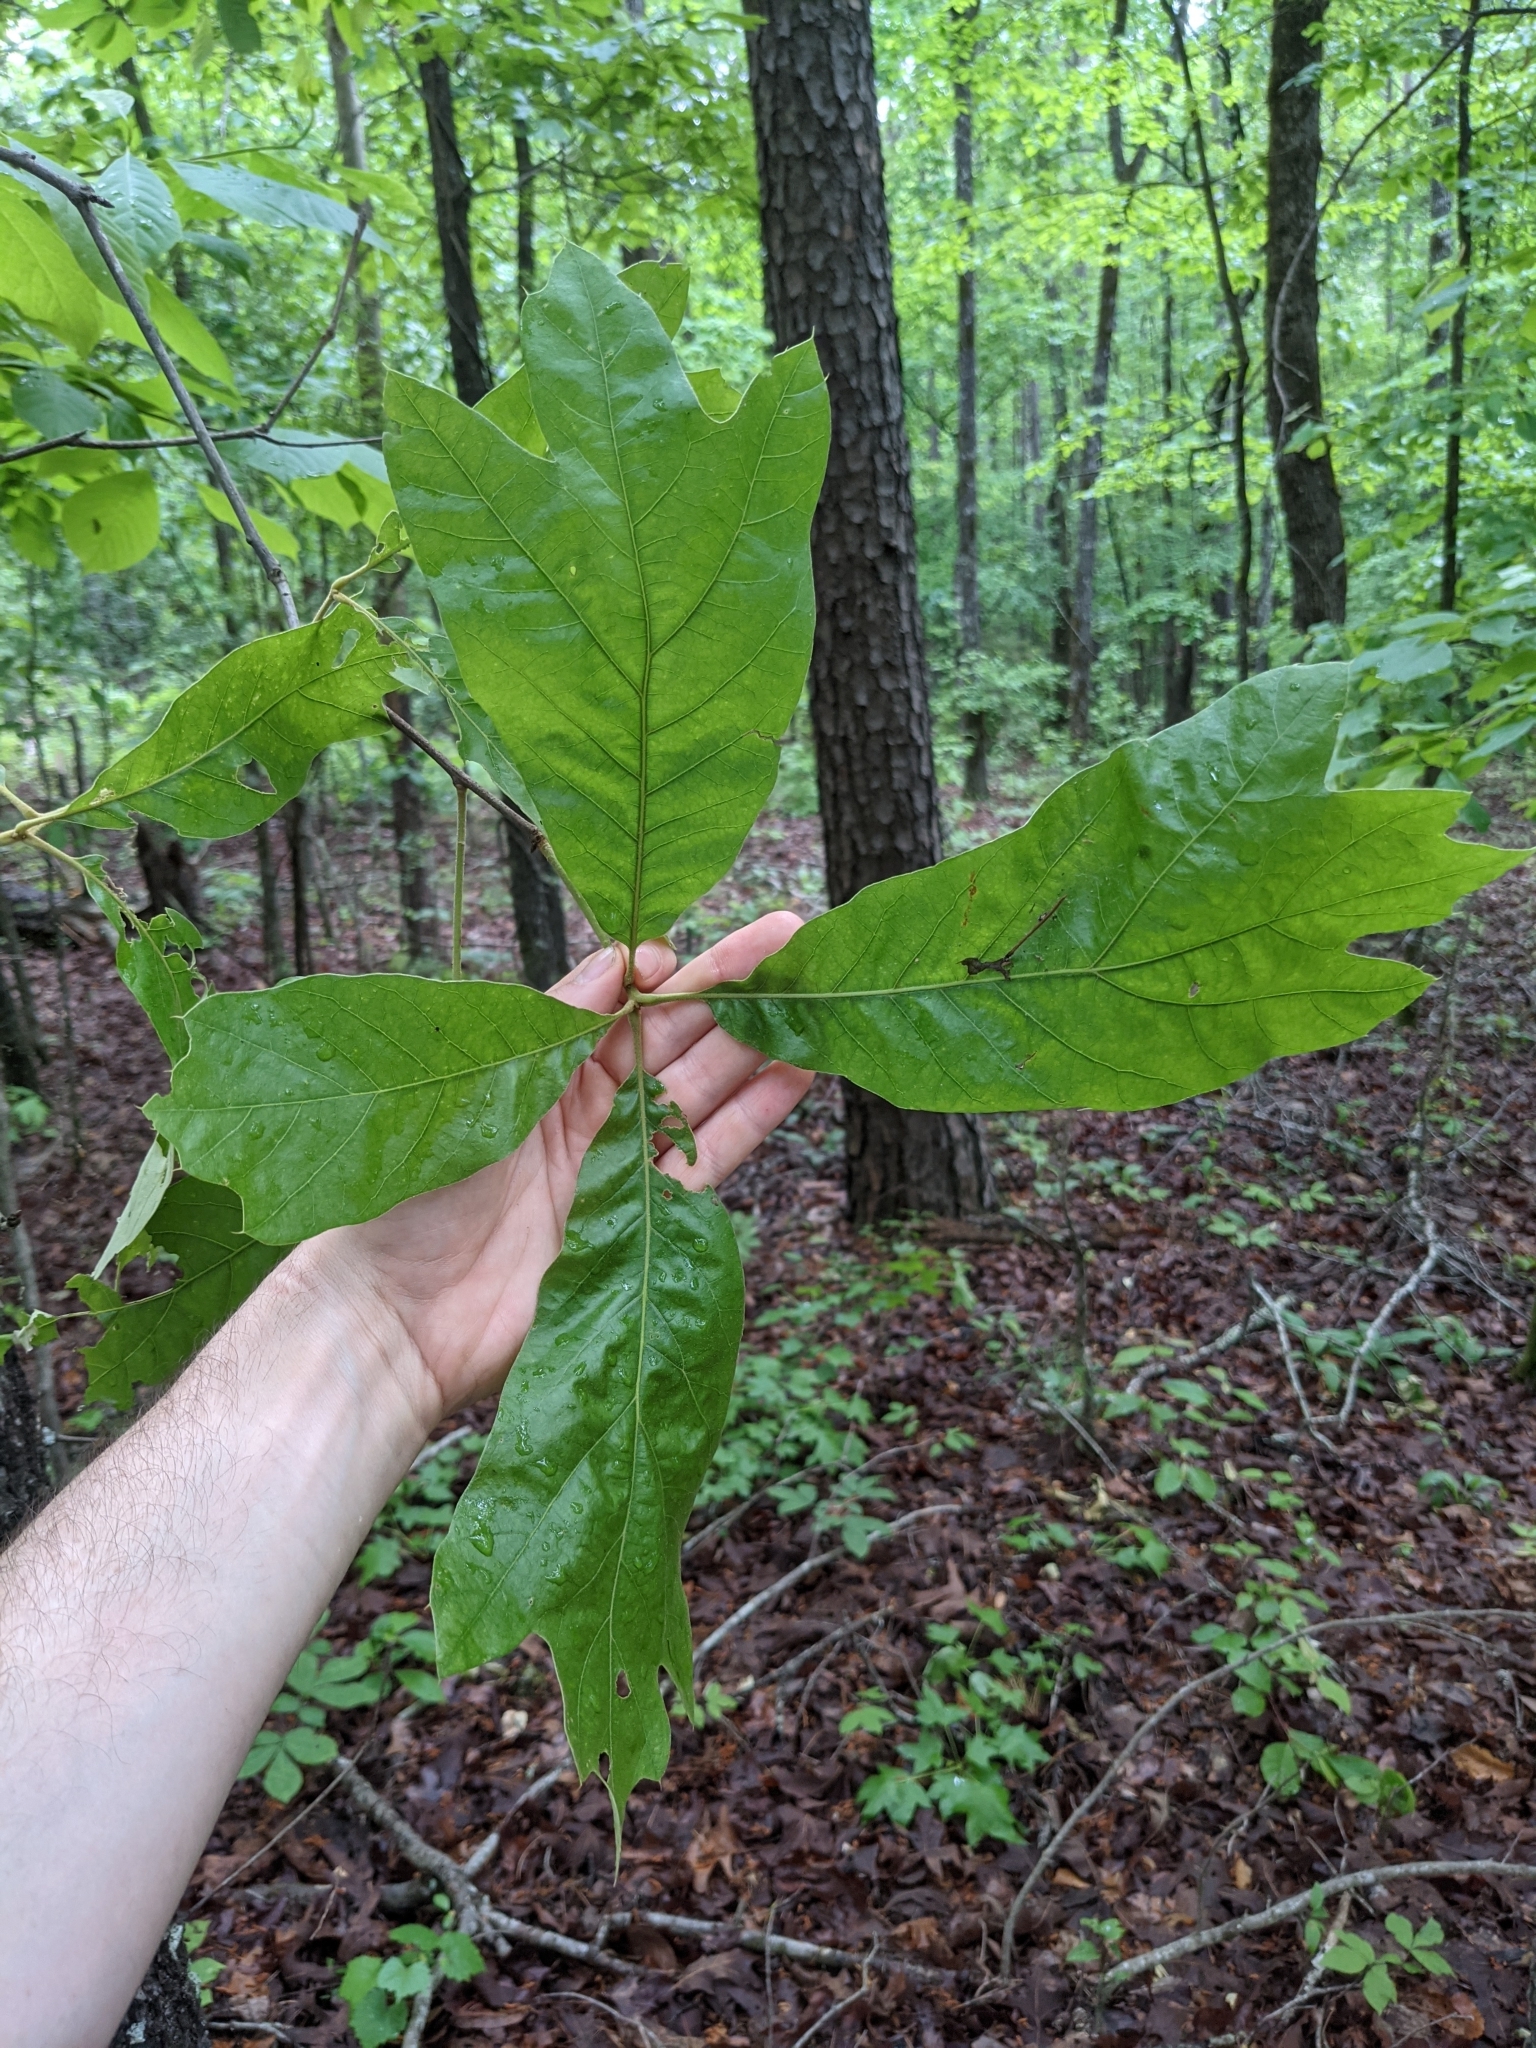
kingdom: Plantae
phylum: Tracheophyta
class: Magnoliopsida
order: Fagales
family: Fagaceae
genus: Quercus
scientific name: Quercus falcata
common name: Southern red oak
